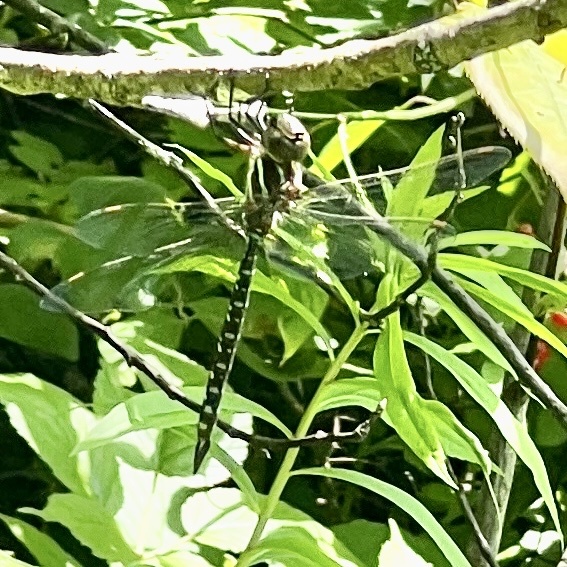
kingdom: Animalia
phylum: Arthropoda
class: Insecta
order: Odonata
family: Aeshnidae
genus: Aeshna
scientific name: Aeshna tuberculifera
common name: Aeschne à tubercules
